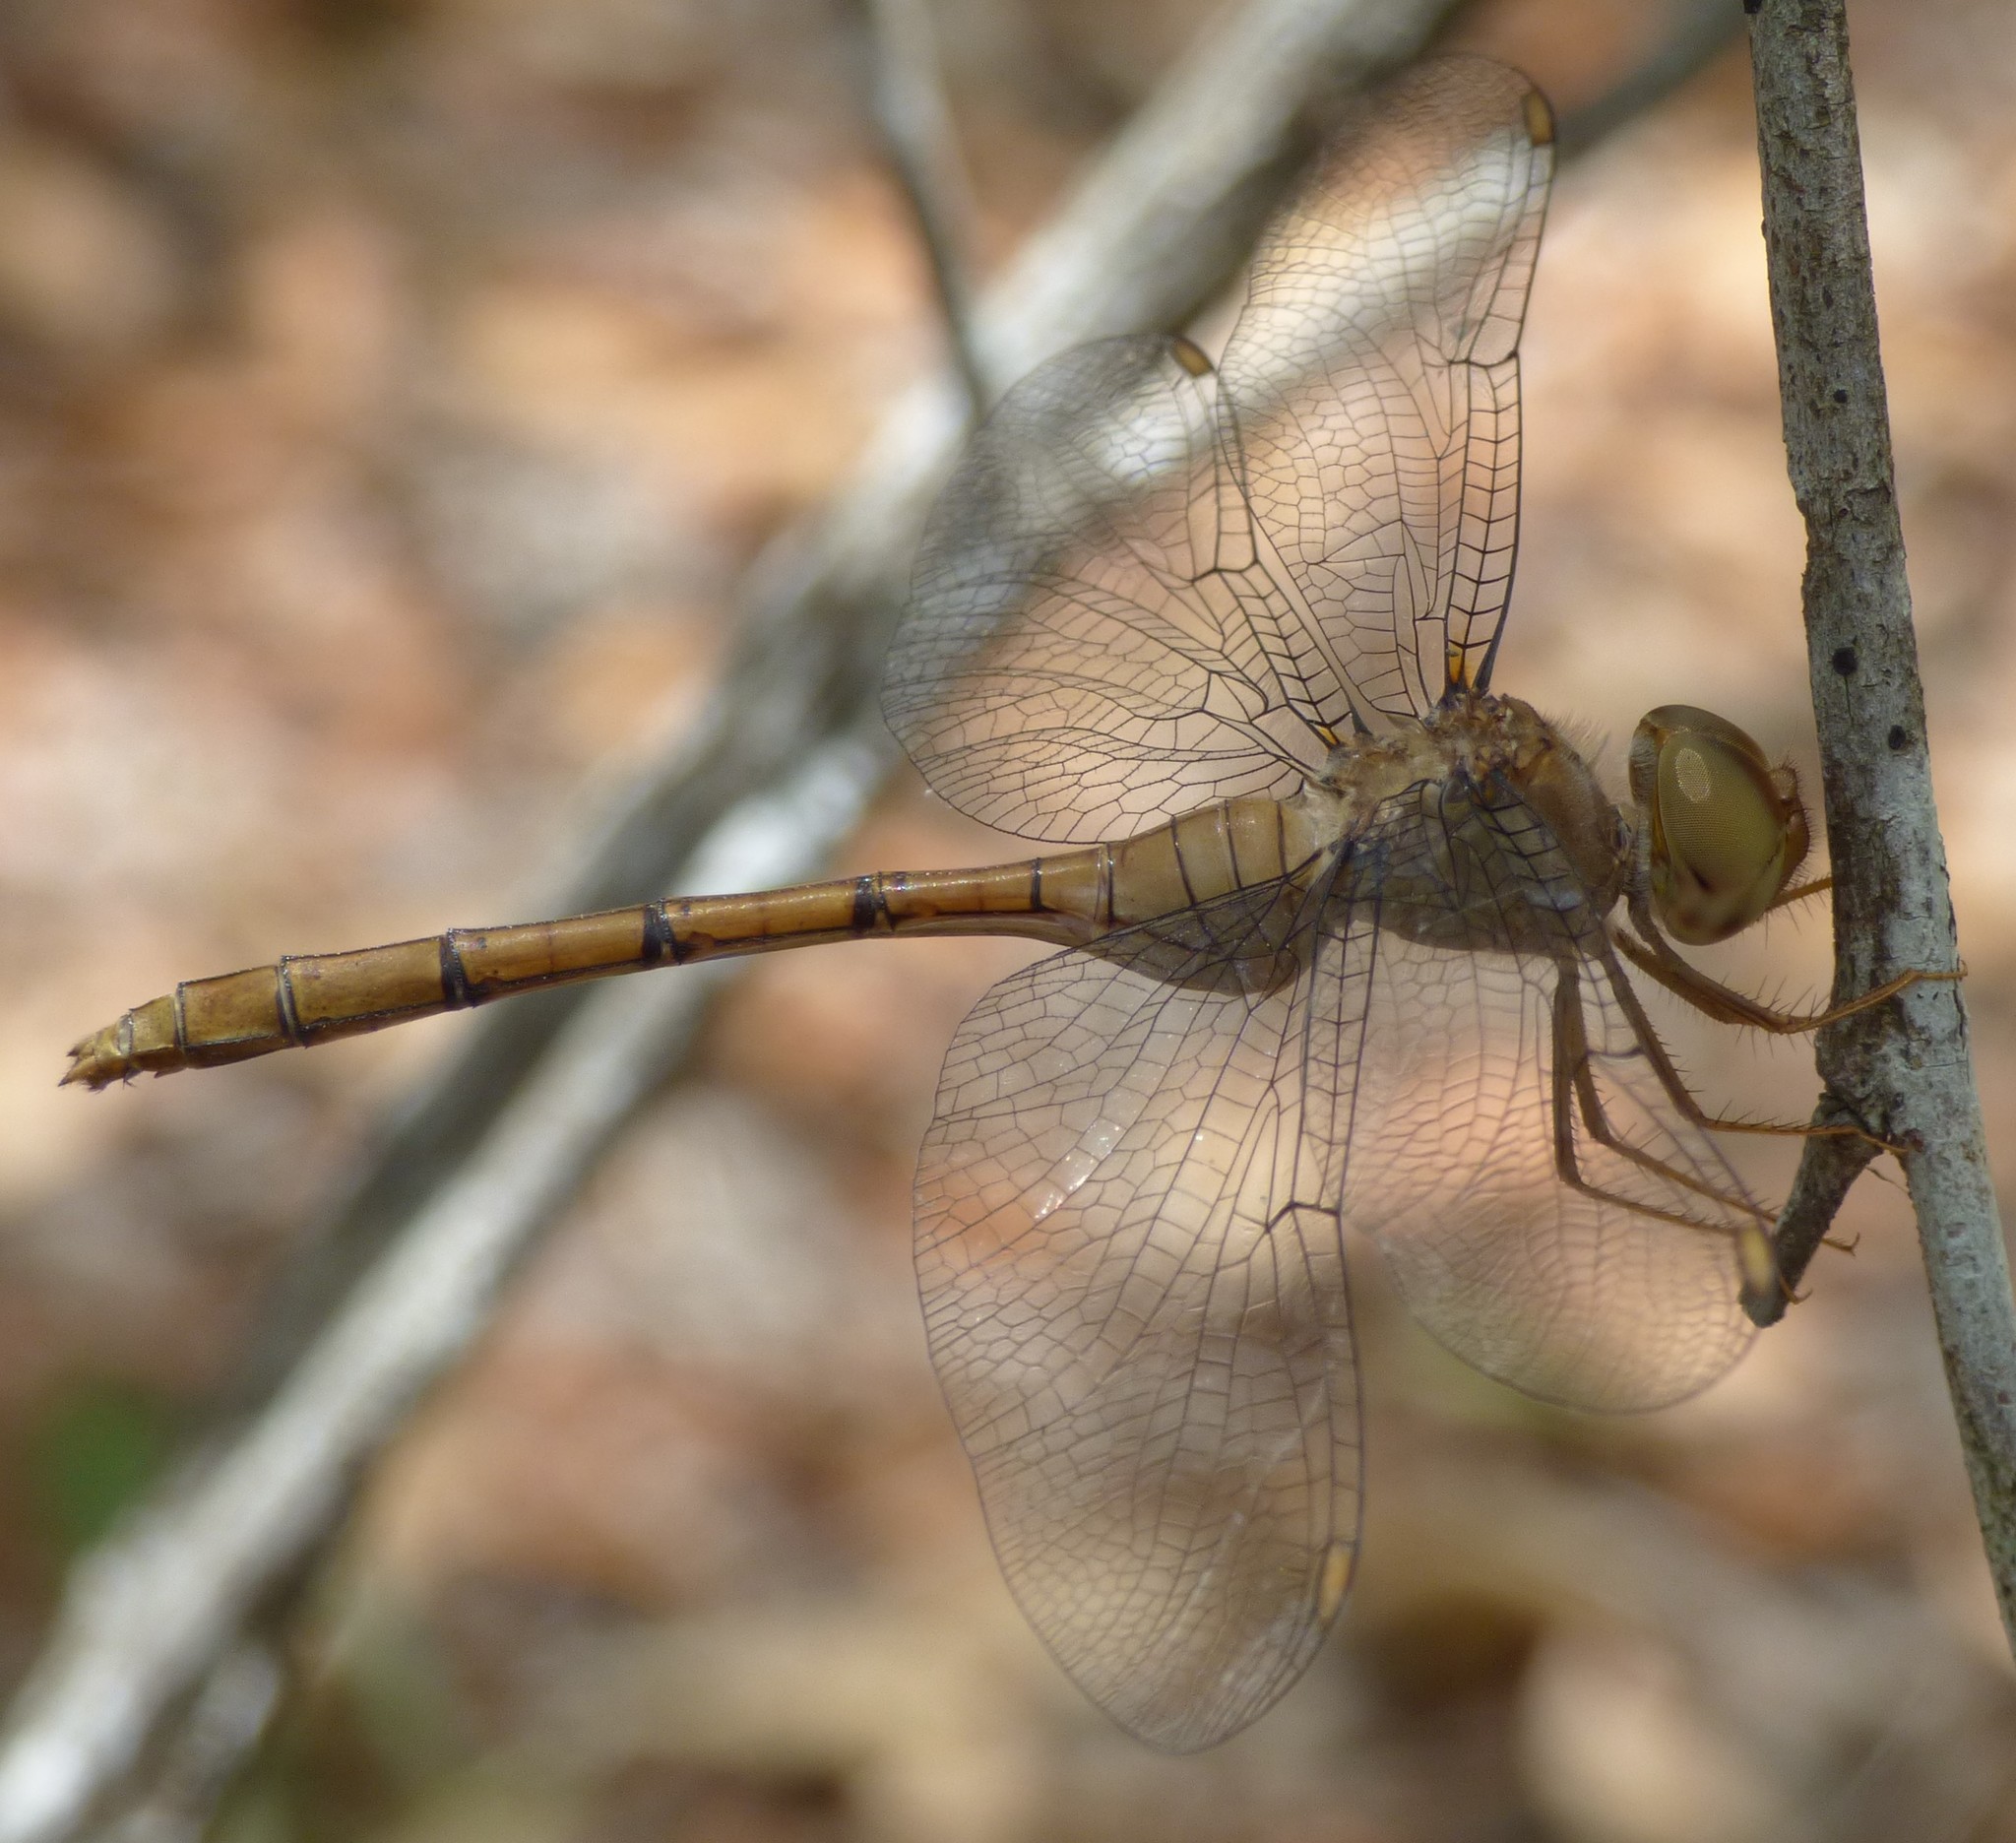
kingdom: Animalia
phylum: Arthropoda
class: Insecta
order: Odonata
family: Libellulidae
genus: Zyxomma
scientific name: Zyxomma elgneri
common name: Short-tailed duskdarter
